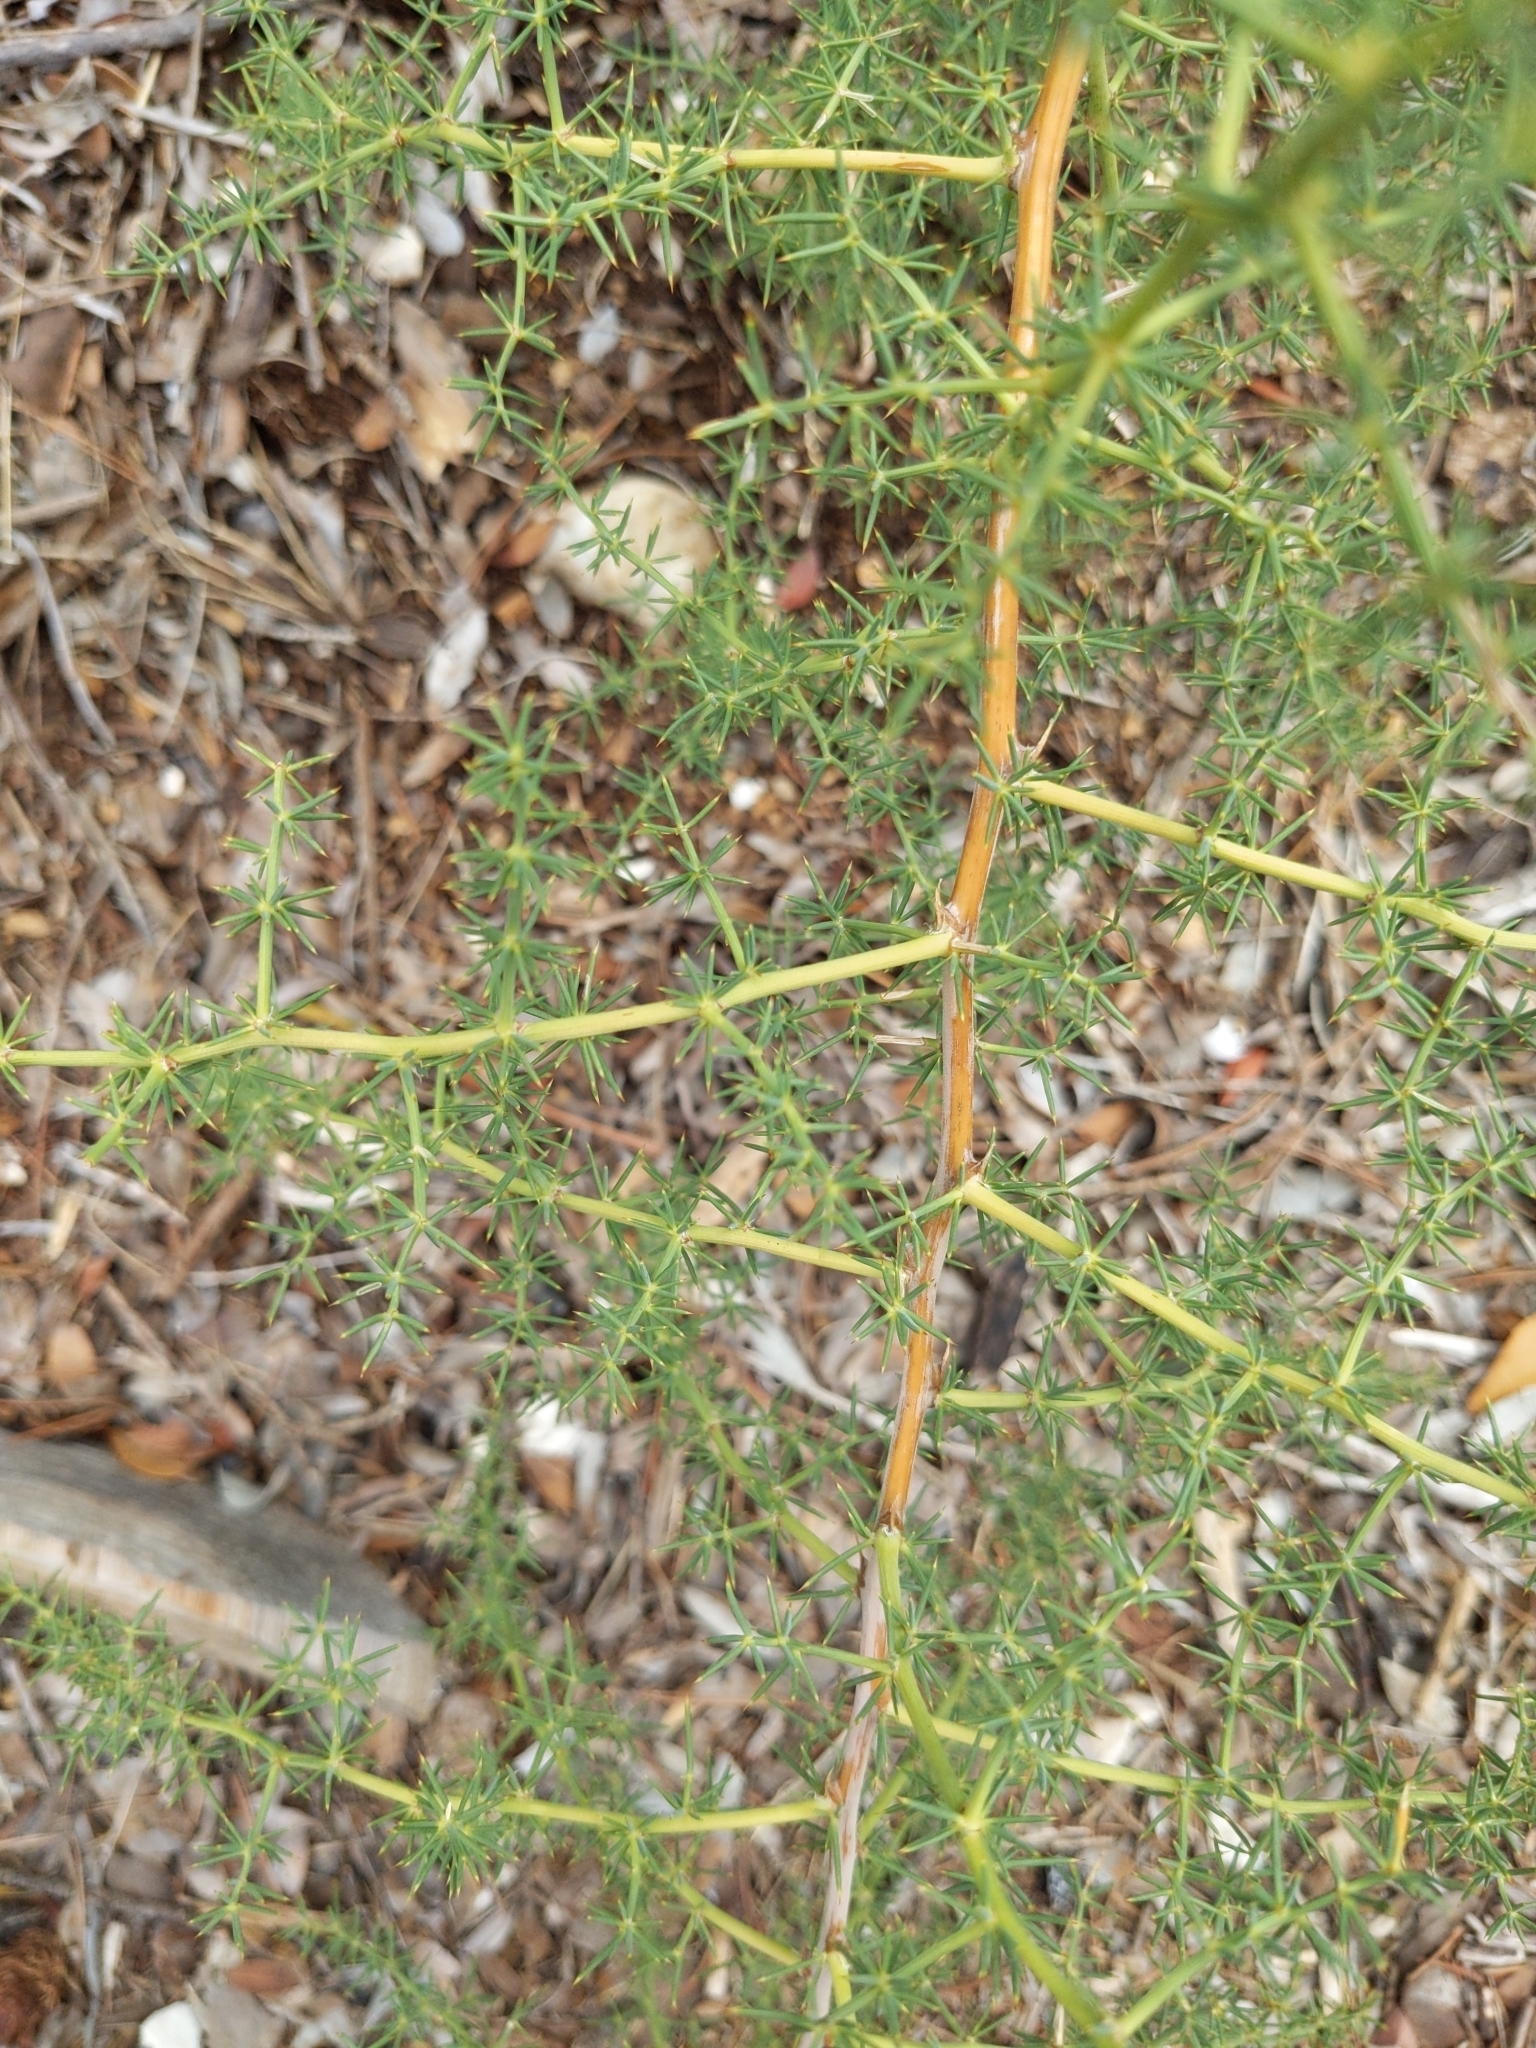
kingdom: Plantae
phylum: Tracheophyta
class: Liliopsida
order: Asparagales
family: Asparagaceae
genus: Asparagus
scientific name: Asparagus acutifolius
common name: Wild asparagus
